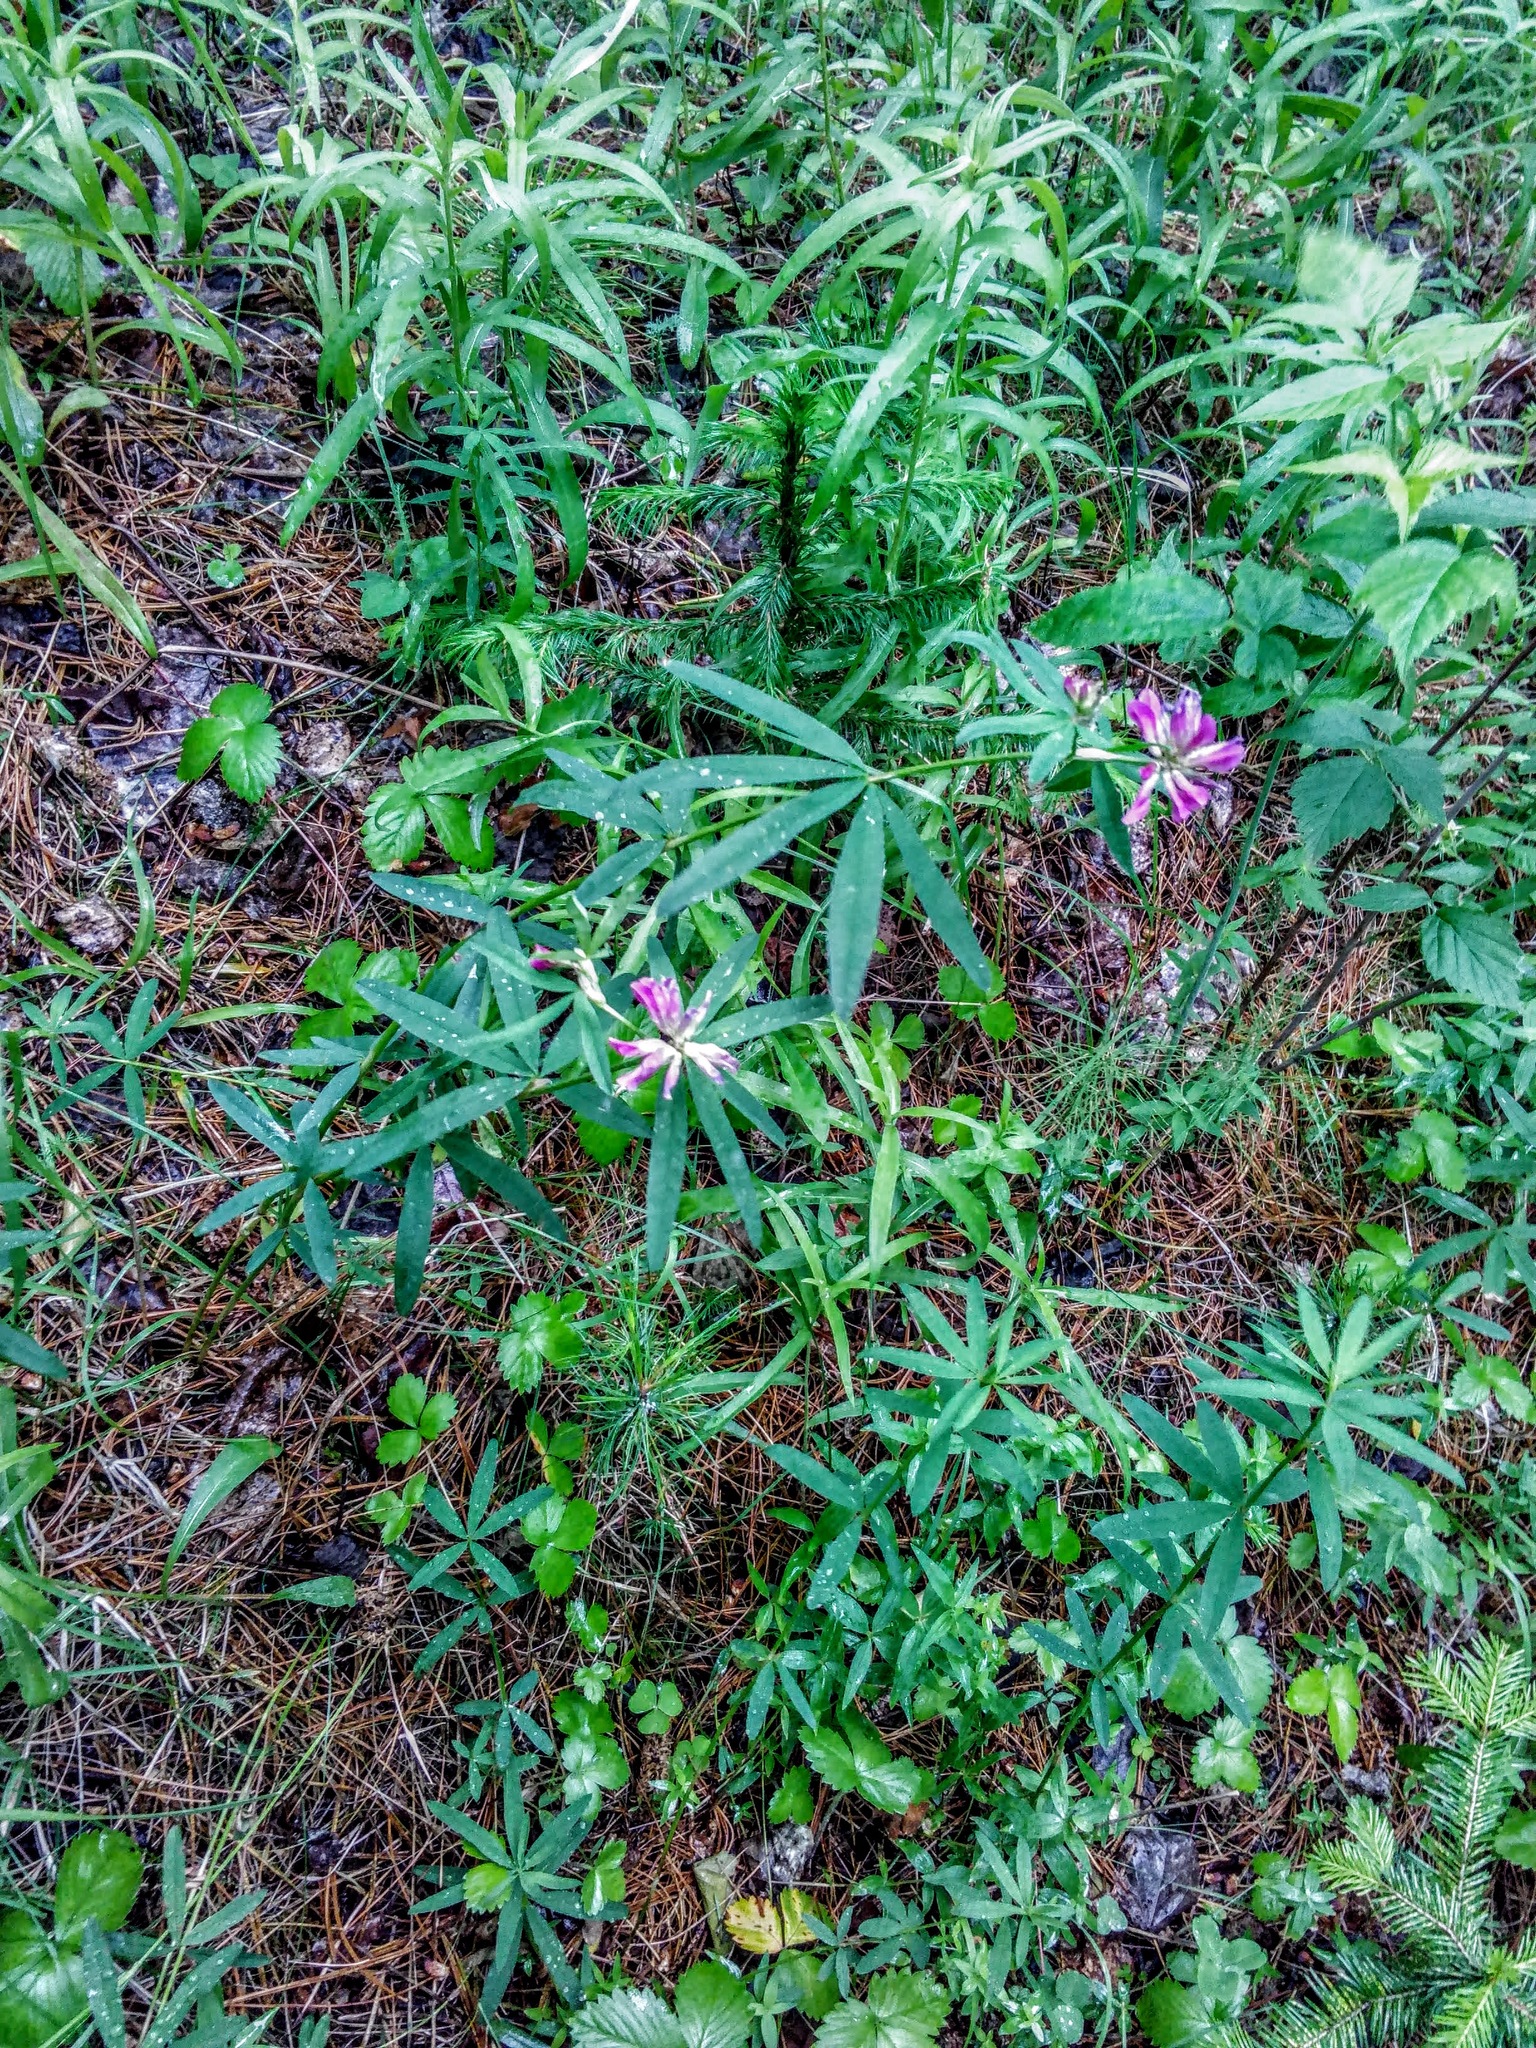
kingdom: Plantae
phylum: Tracheophyta
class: Magnoliopsida
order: Fabales
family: Fabaceae
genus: Trifolium
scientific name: Trifolium lupinaster
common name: Lupine clover
